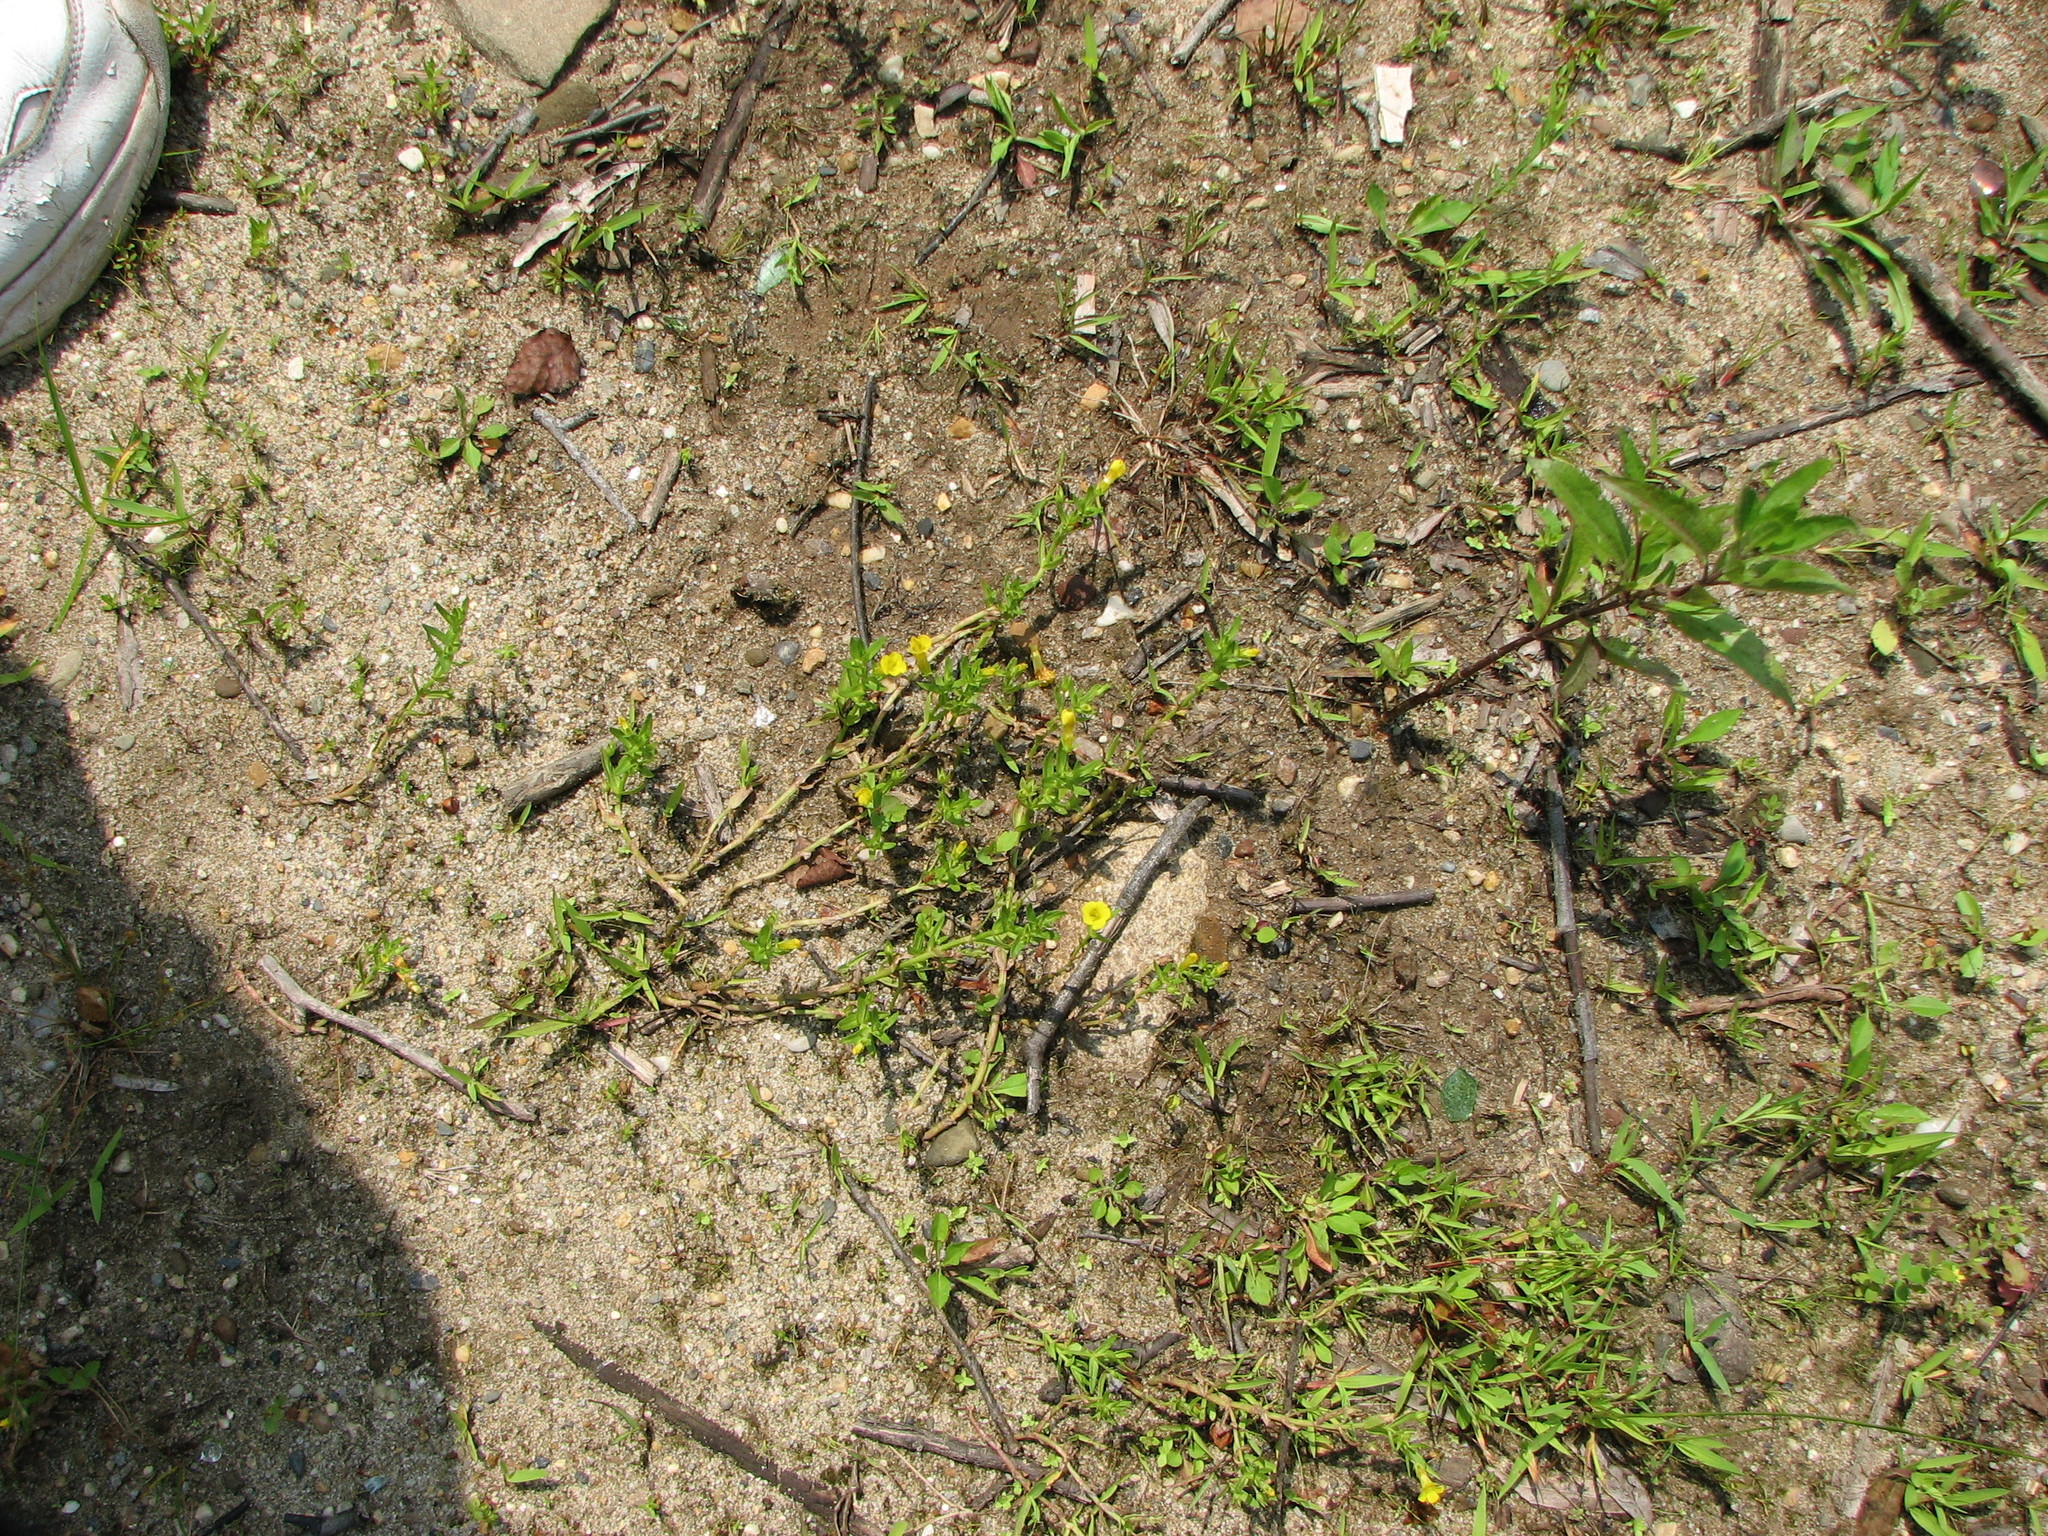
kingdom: Plantae
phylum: Tracheophyta
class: Magnoliopsida
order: Lamiales
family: Plantaginaceae
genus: Gratiola
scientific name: Gratiola lutea
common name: Golden hedge-hyssop
